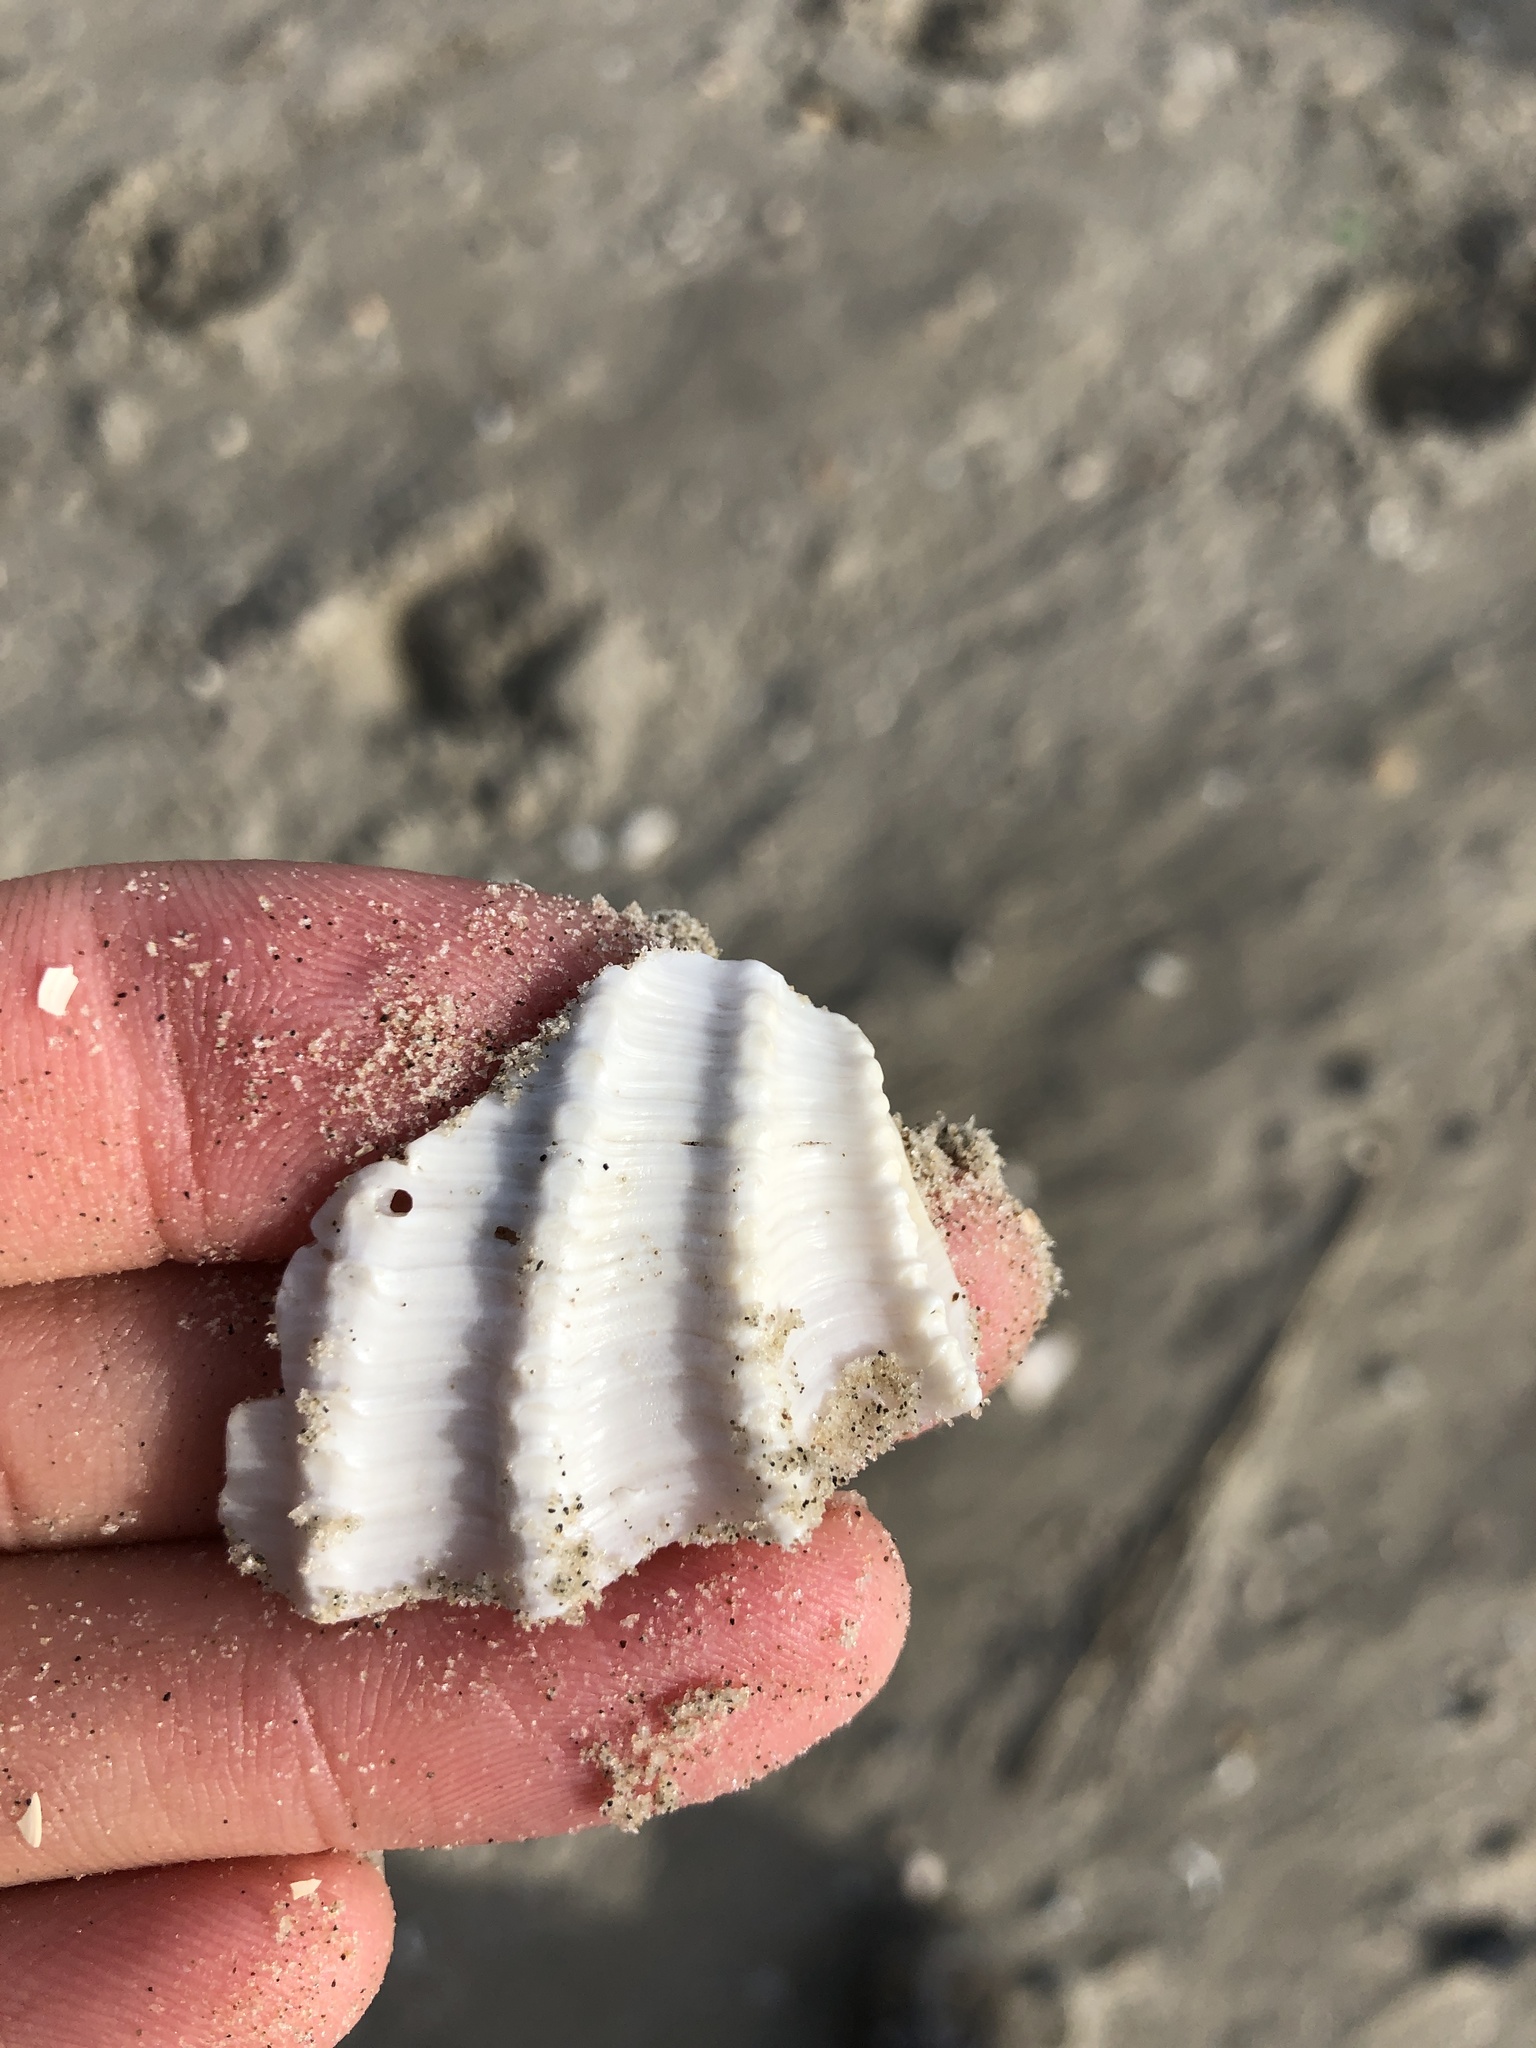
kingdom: Animalia
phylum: Mollusca
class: Bivalvia
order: Myida
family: Pholadidae
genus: Cyrtopleura
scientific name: Cyrtopleura costata
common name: Angel wing
